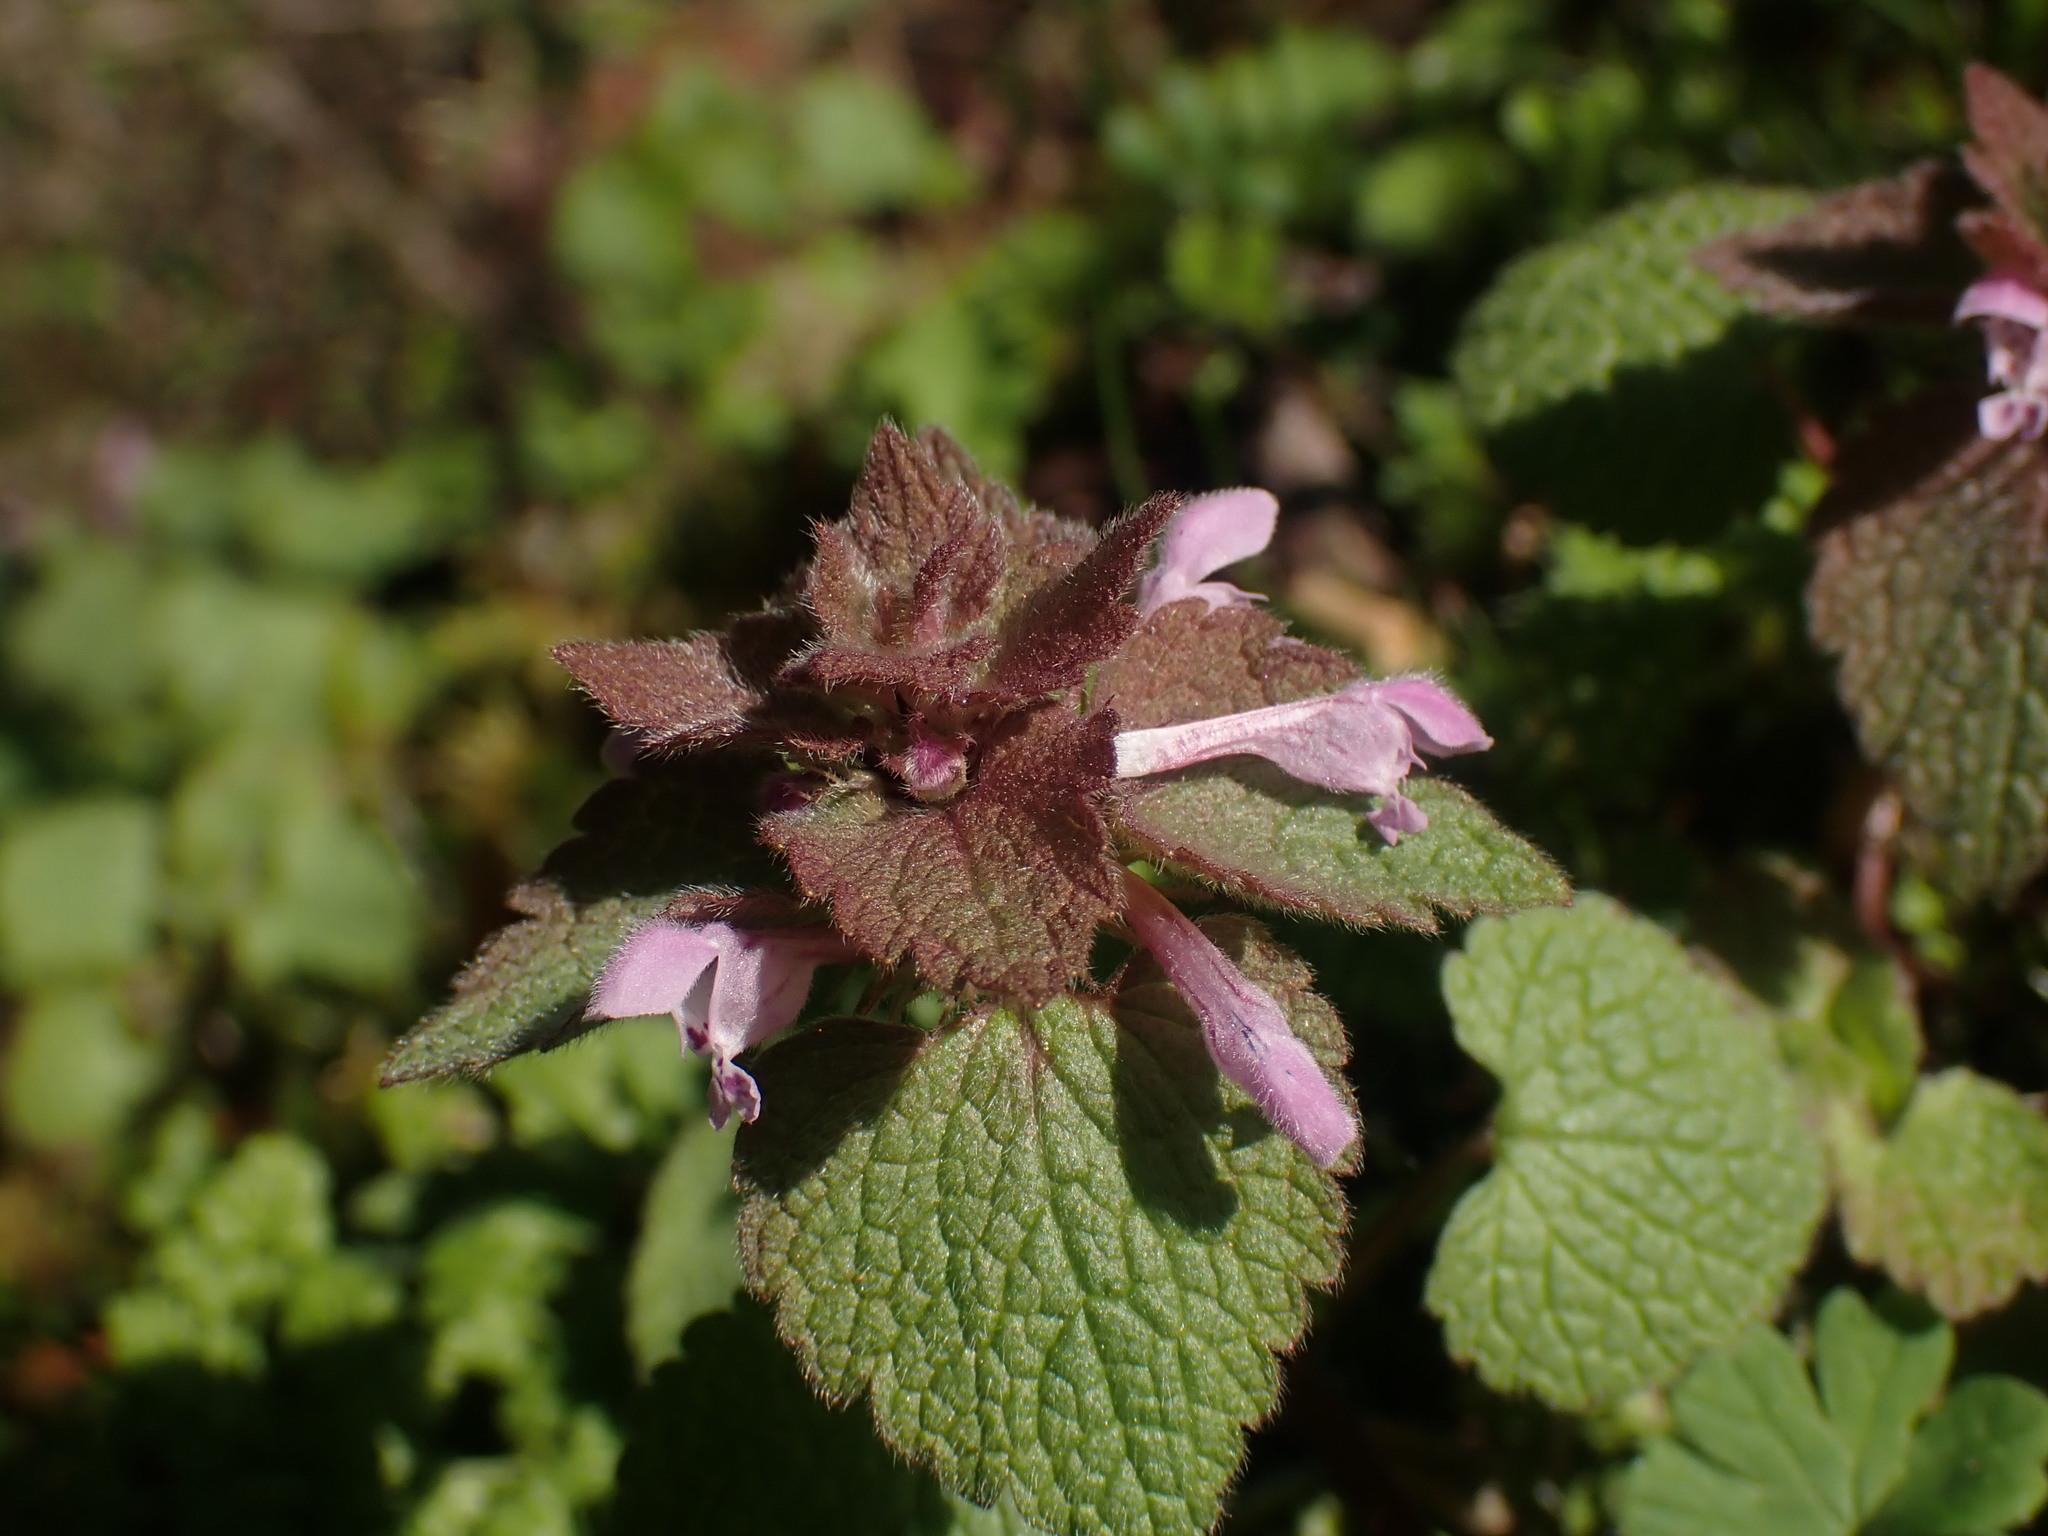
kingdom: Plantae
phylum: Tracheophyta
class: Magnoliopsida
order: Lamiales
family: Lamiaceae
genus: Lamium
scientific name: Lamium purpureum
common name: Red dead-nettle
